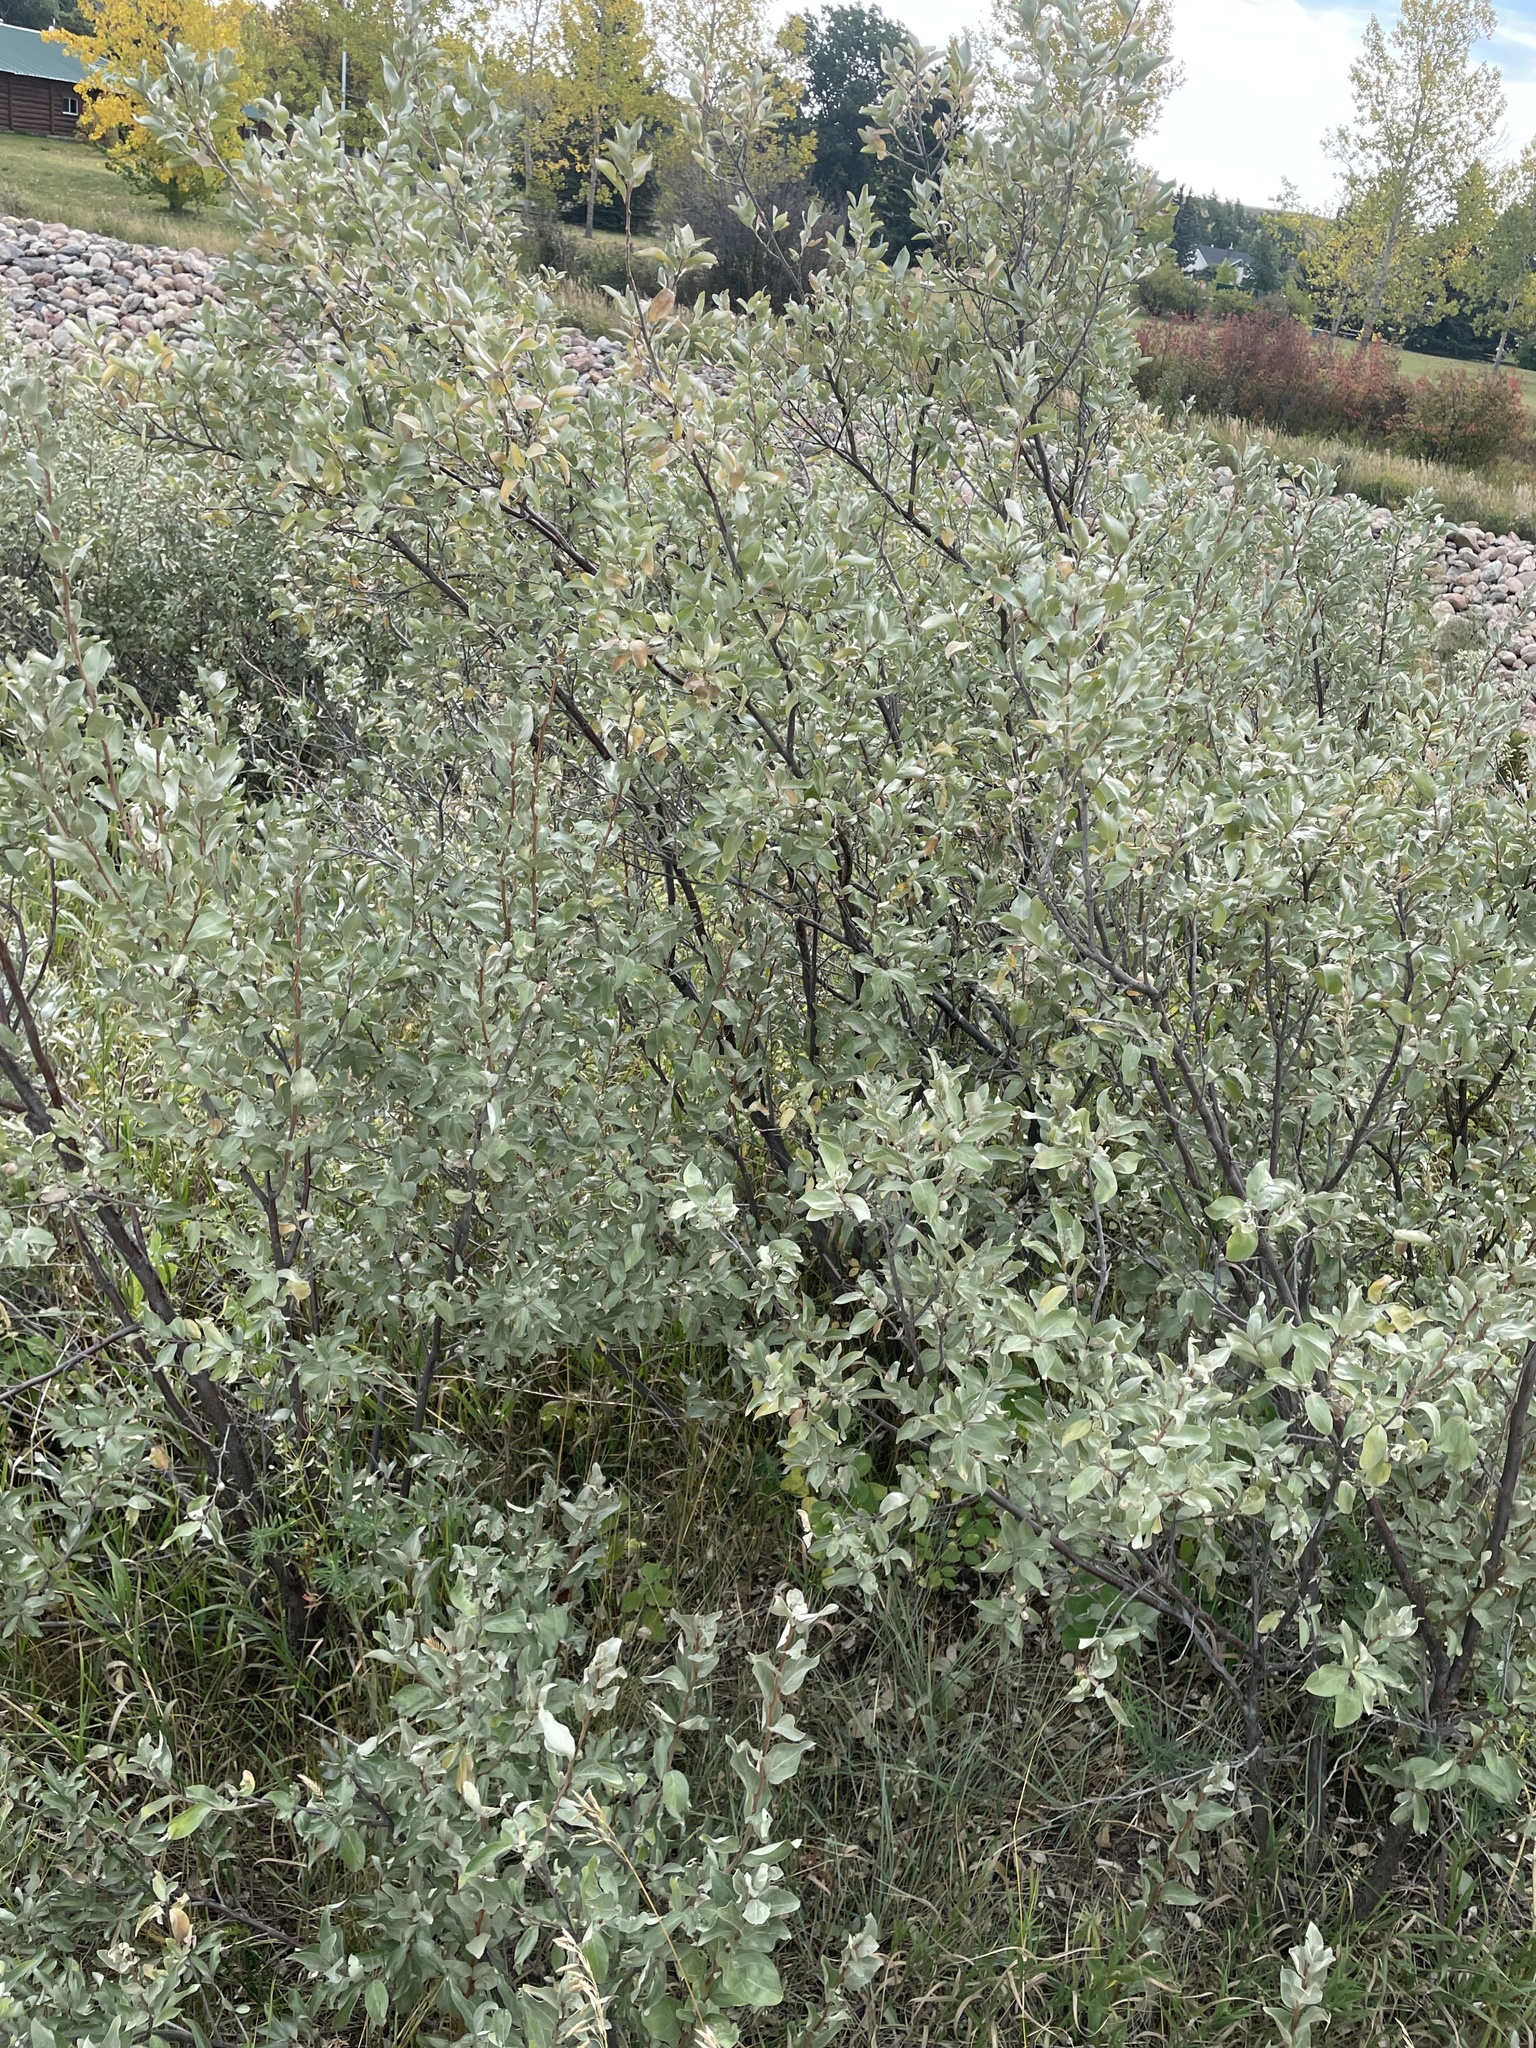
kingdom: Plantae
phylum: Tracheophyta
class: Magnoliopsida
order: Rosales
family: Elaeagnaceae
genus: Elaeagnus
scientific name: Elaeagnus commutata
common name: Silverberry
